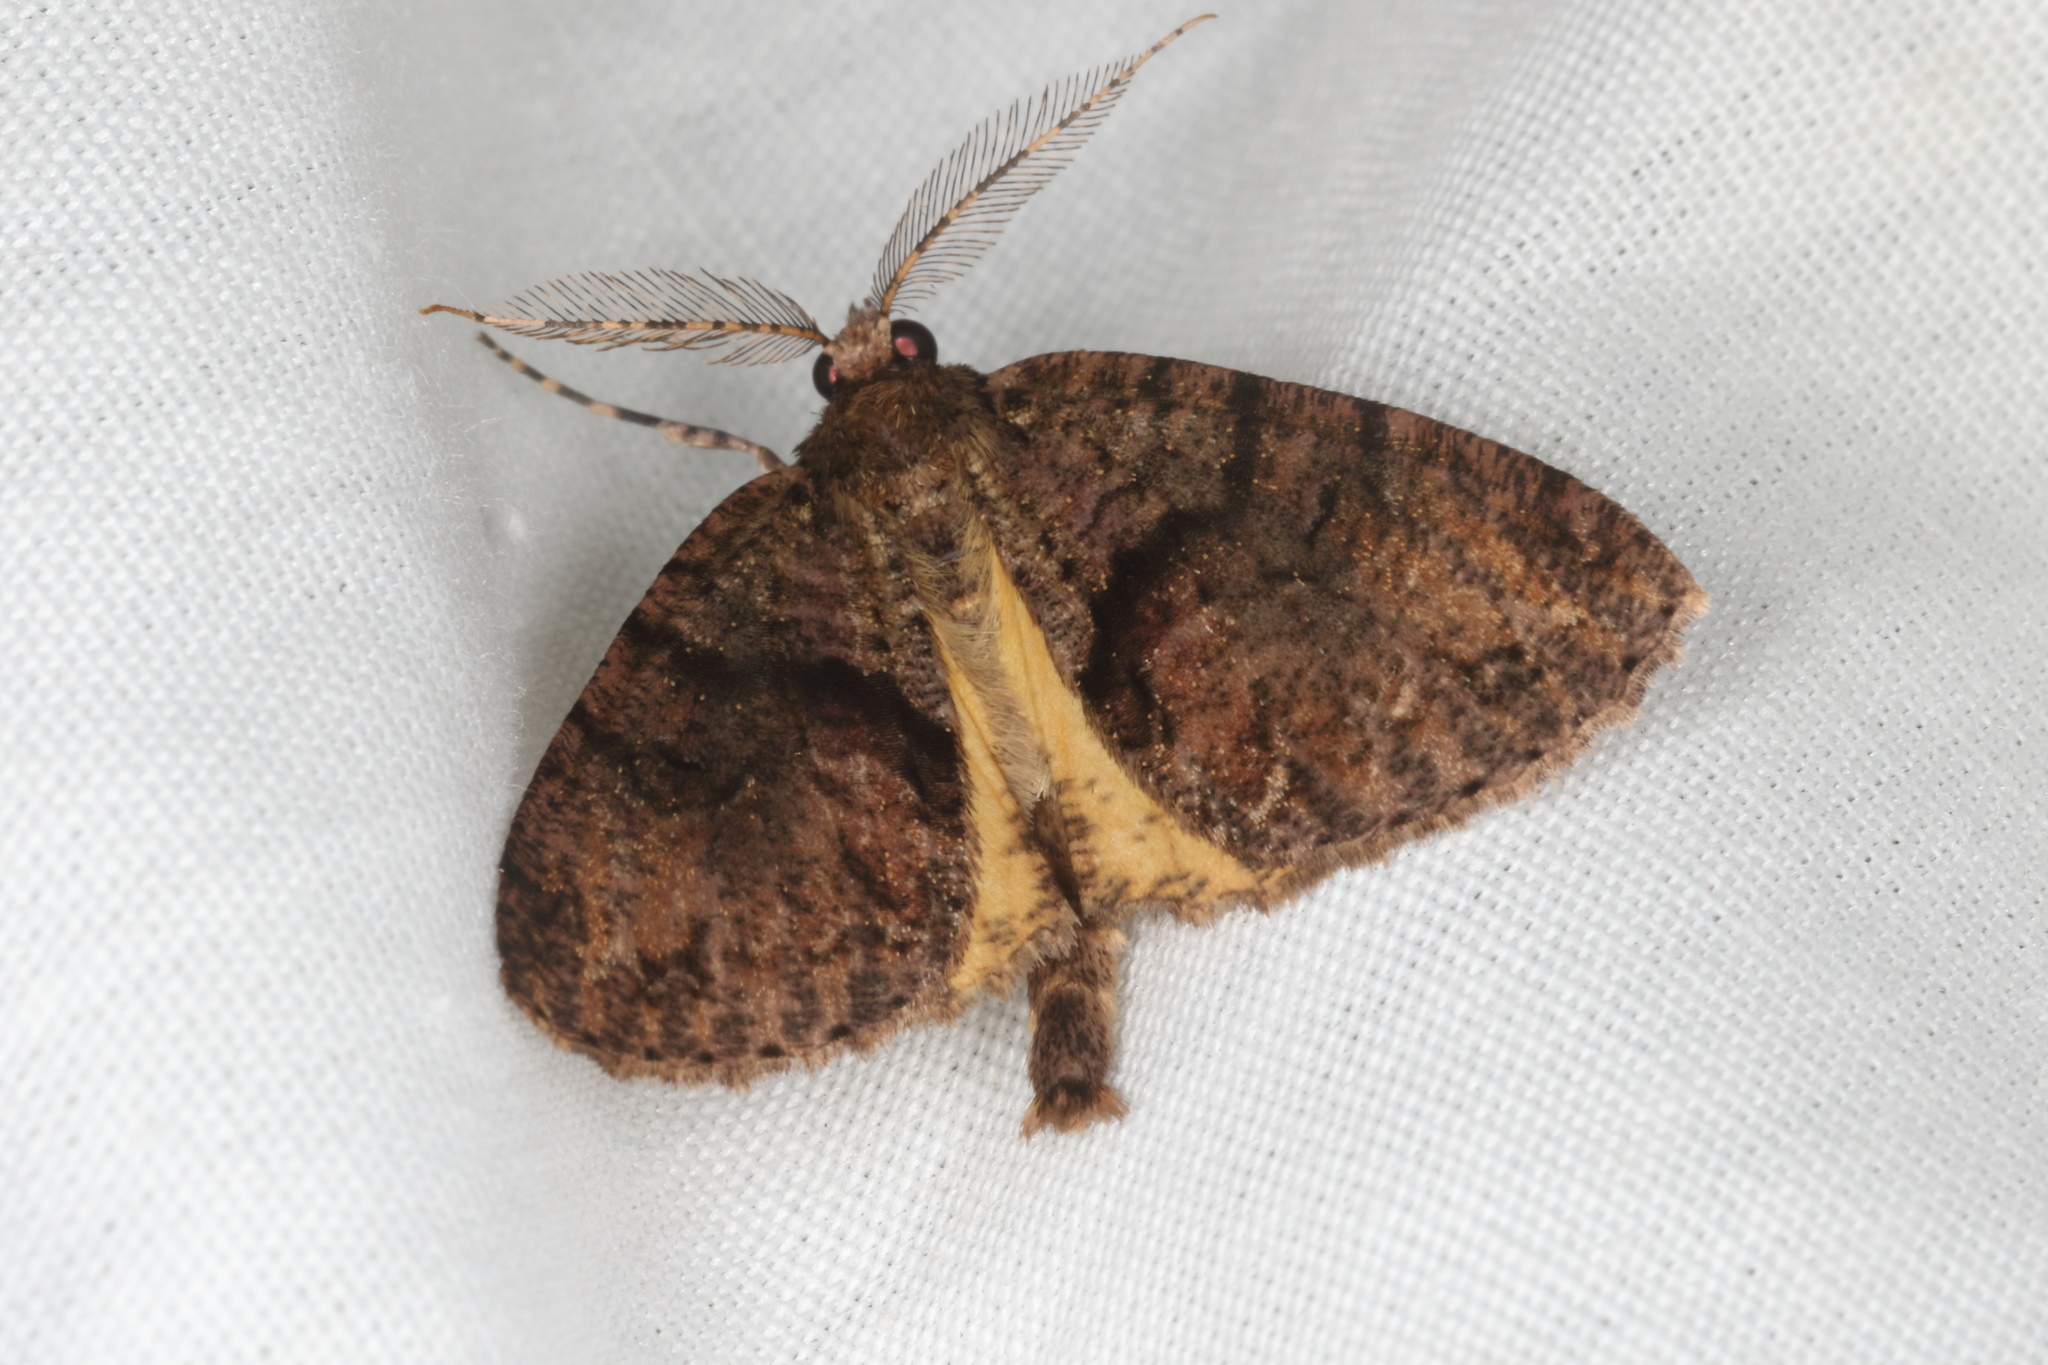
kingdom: Animalia
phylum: Arthropoda
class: Insecta
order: Lepidoptera
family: Geometridae
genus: Pseudocoremia
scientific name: Pseudocoremia suavis
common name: Common forest looper
